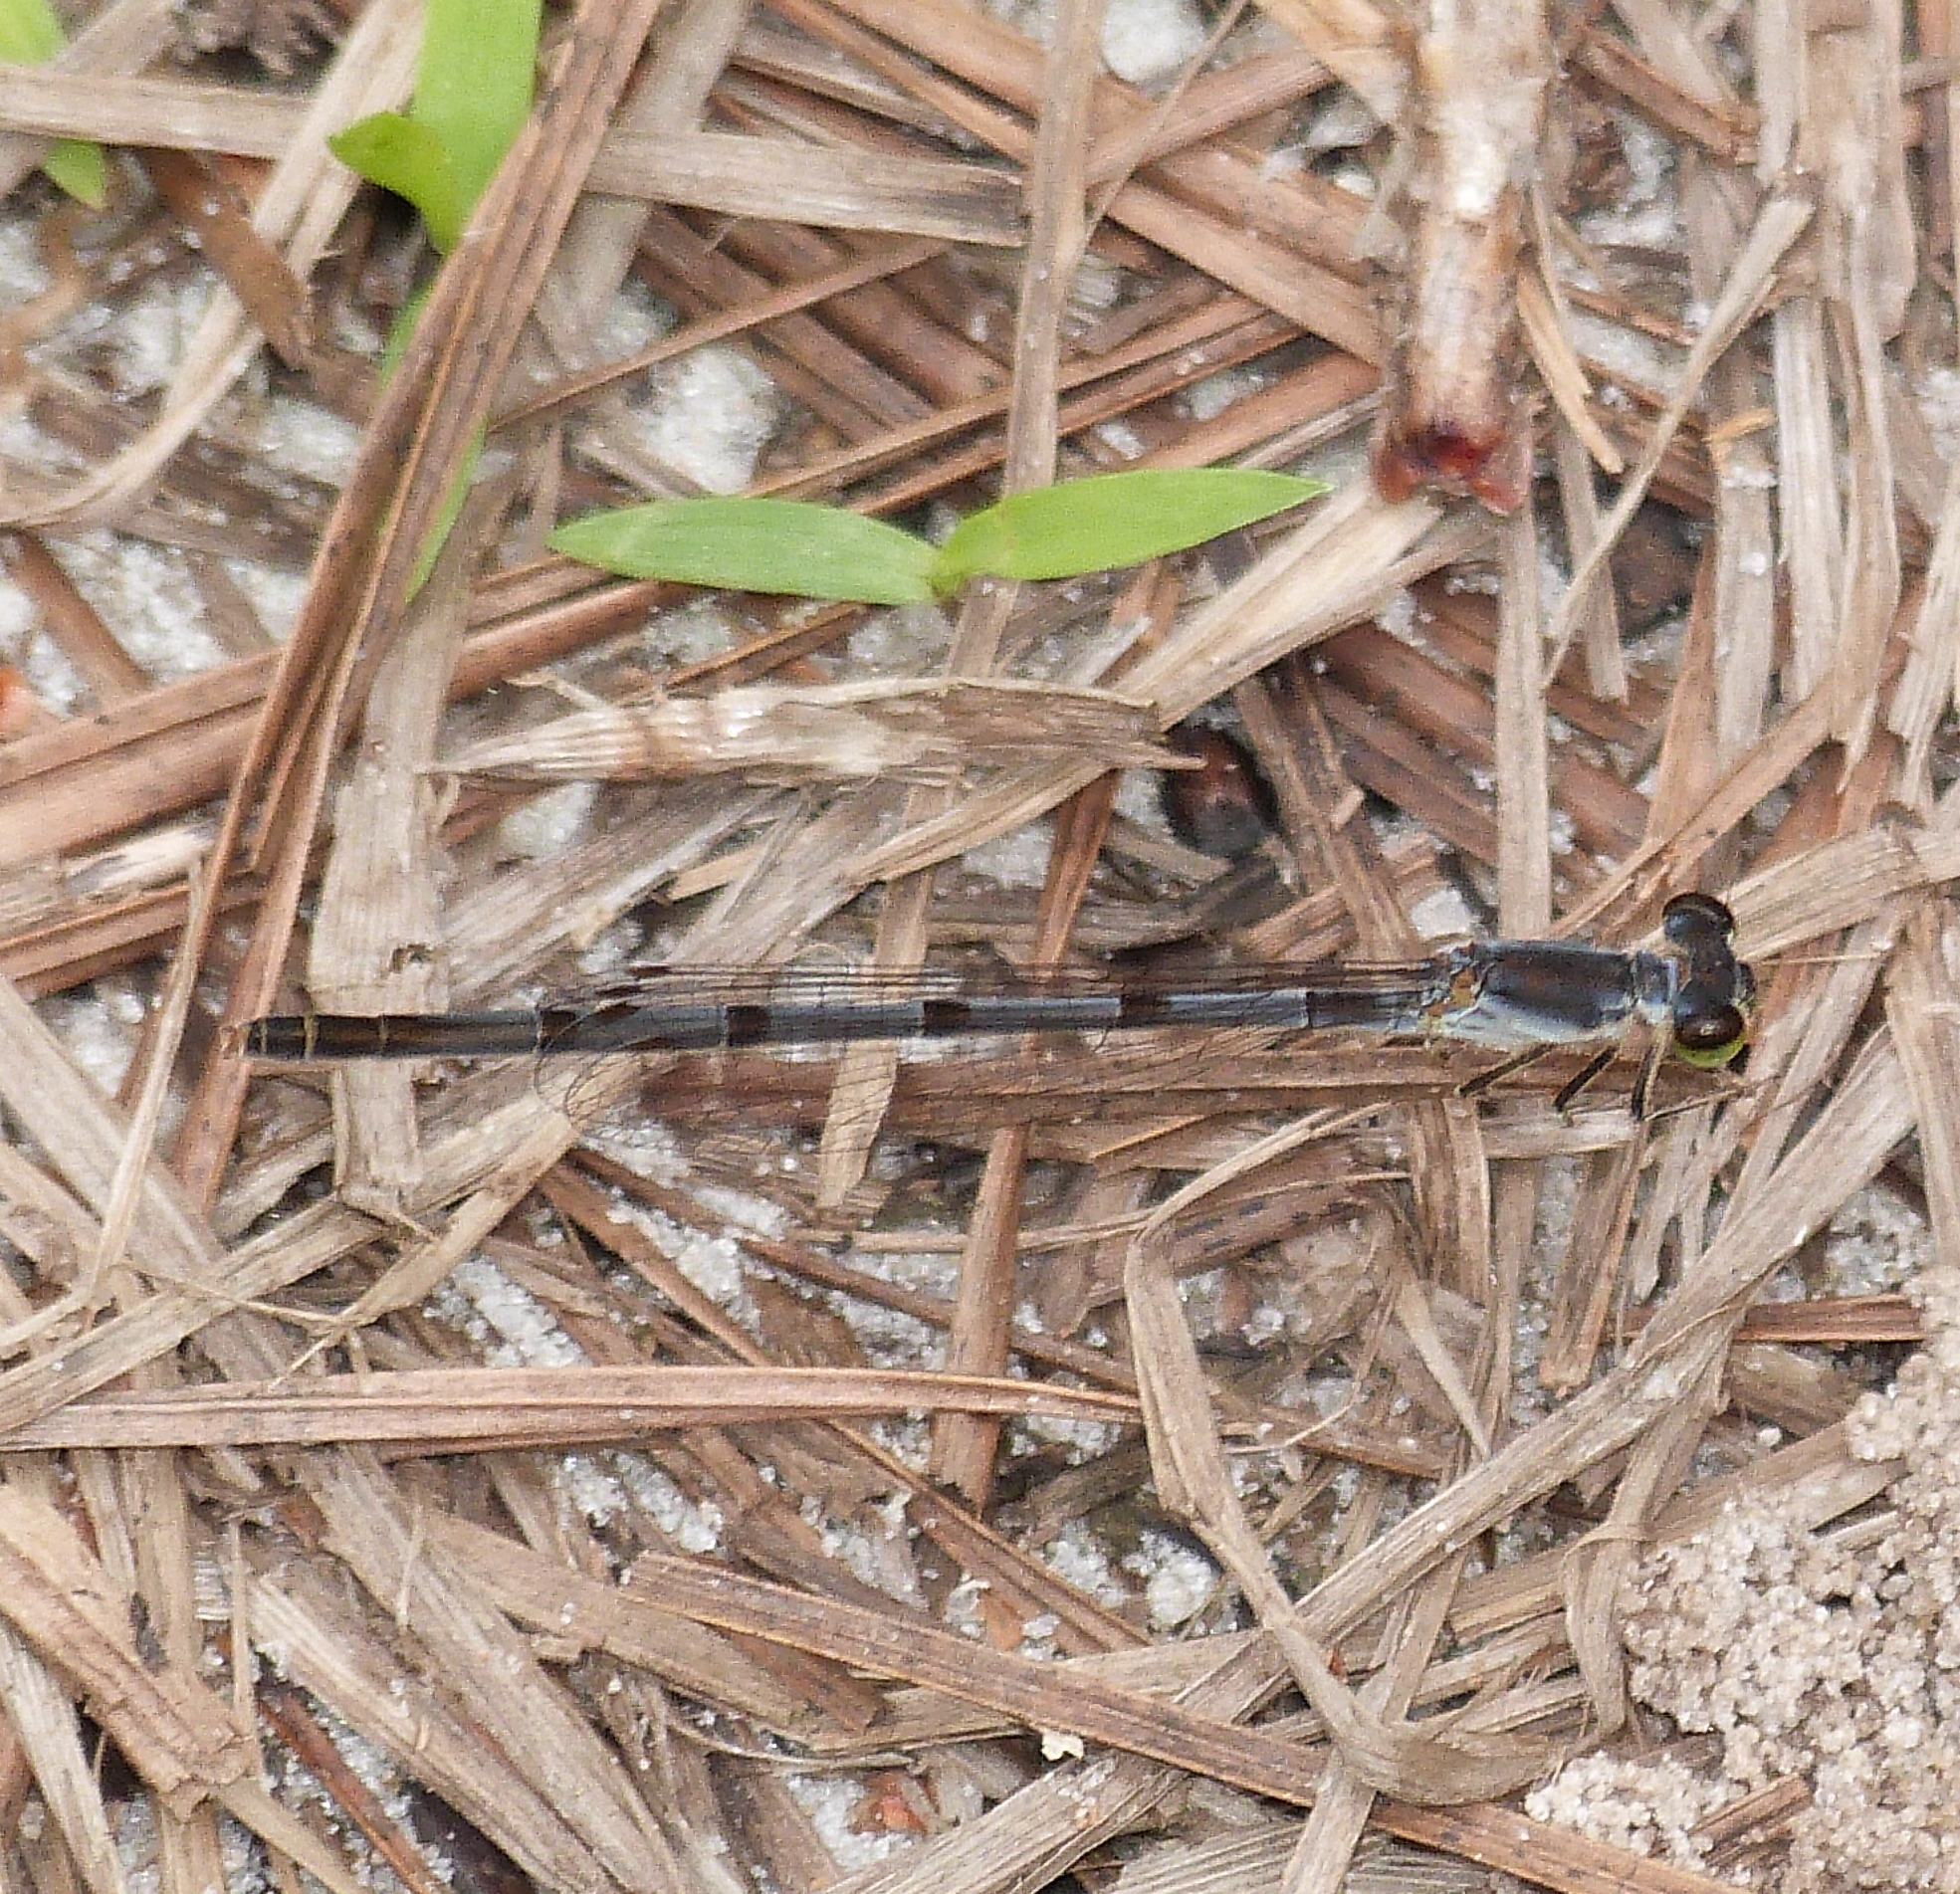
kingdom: Animalia
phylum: Arthropoda
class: Insecta
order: Odonata
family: Coenagrionidae
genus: Ischnura
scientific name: Ischnura posita
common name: Fragile forktail
